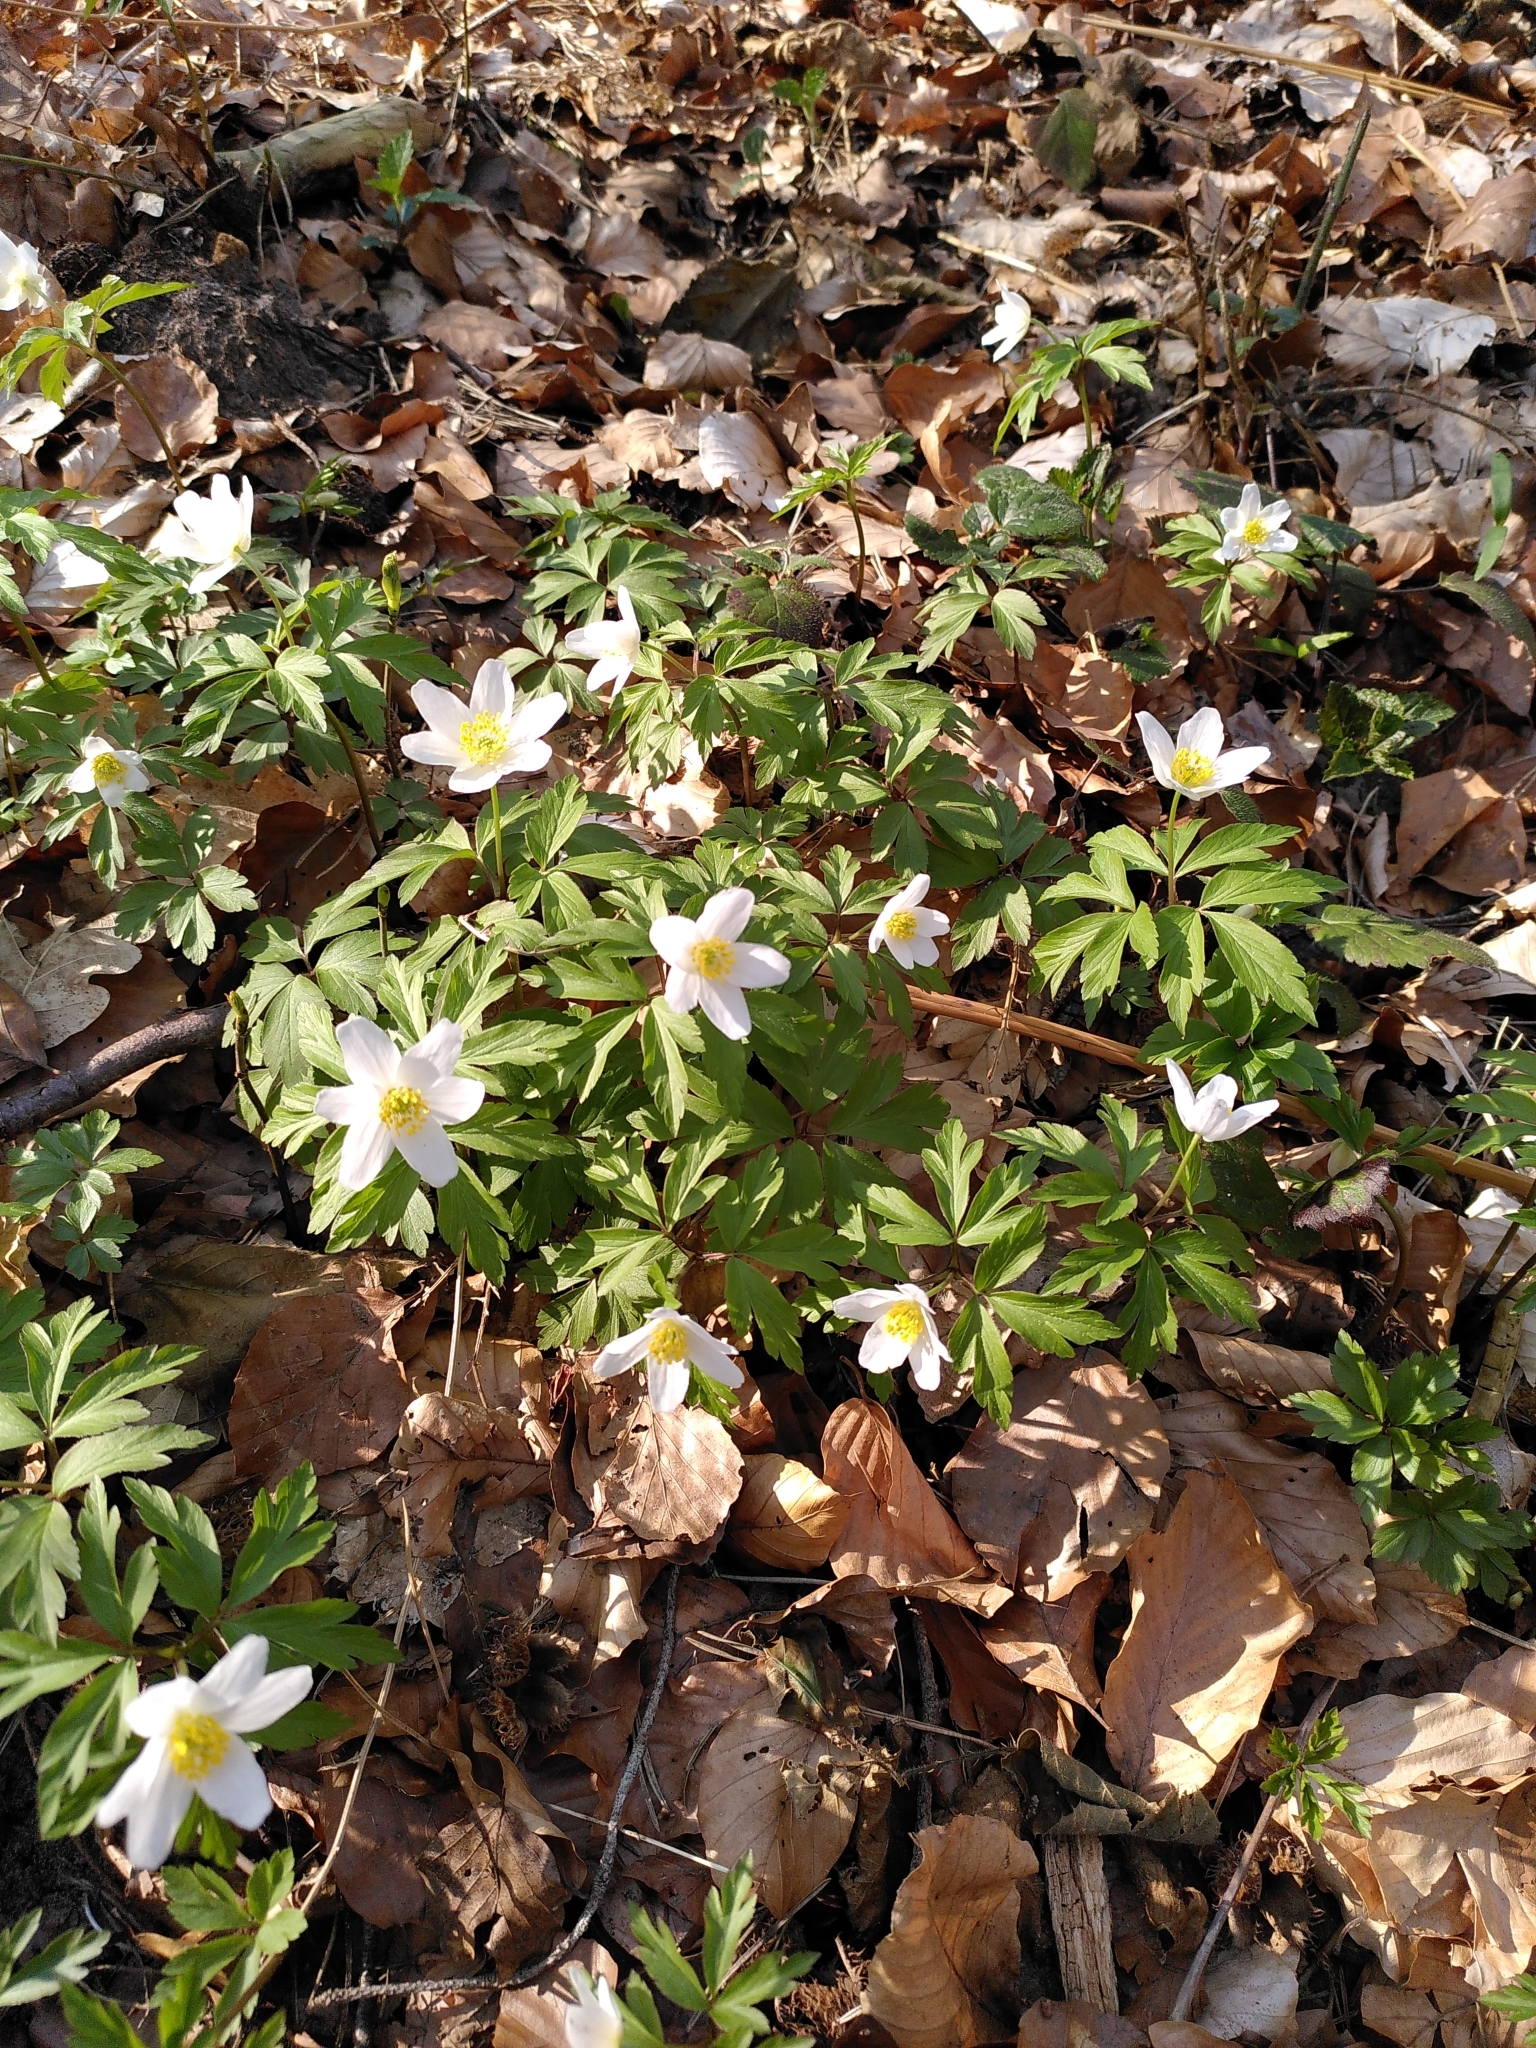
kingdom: Plantae
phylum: Tracheophyta
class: Magnoliopsida
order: Ranunculales
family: Ranunculaceae
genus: Anemone
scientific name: Anemone nemorosa
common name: Wood anemone
